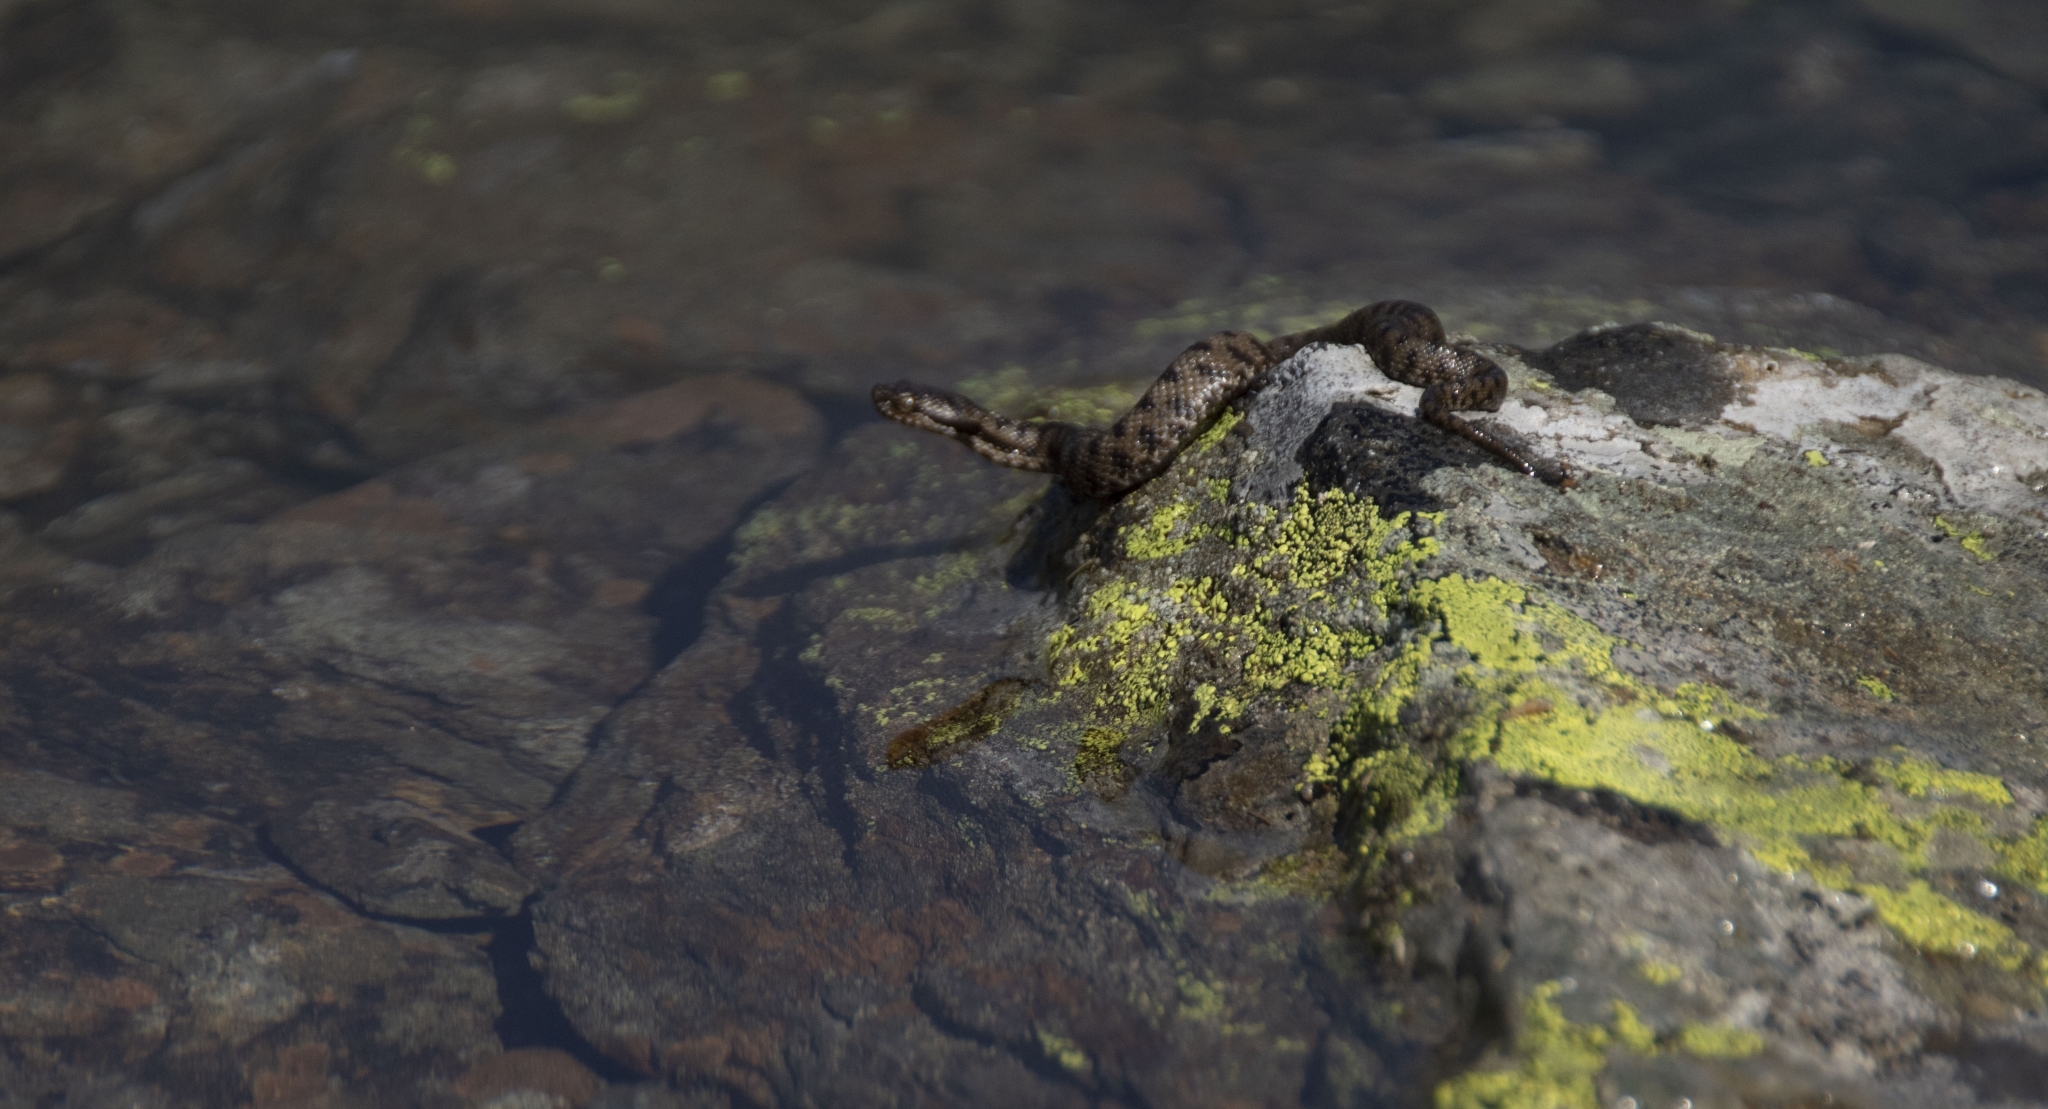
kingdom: Animalia
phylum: Chordata
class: Squamata
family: Viperidae
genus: Vipera
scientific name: Vipera aspis
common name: Asp viper
